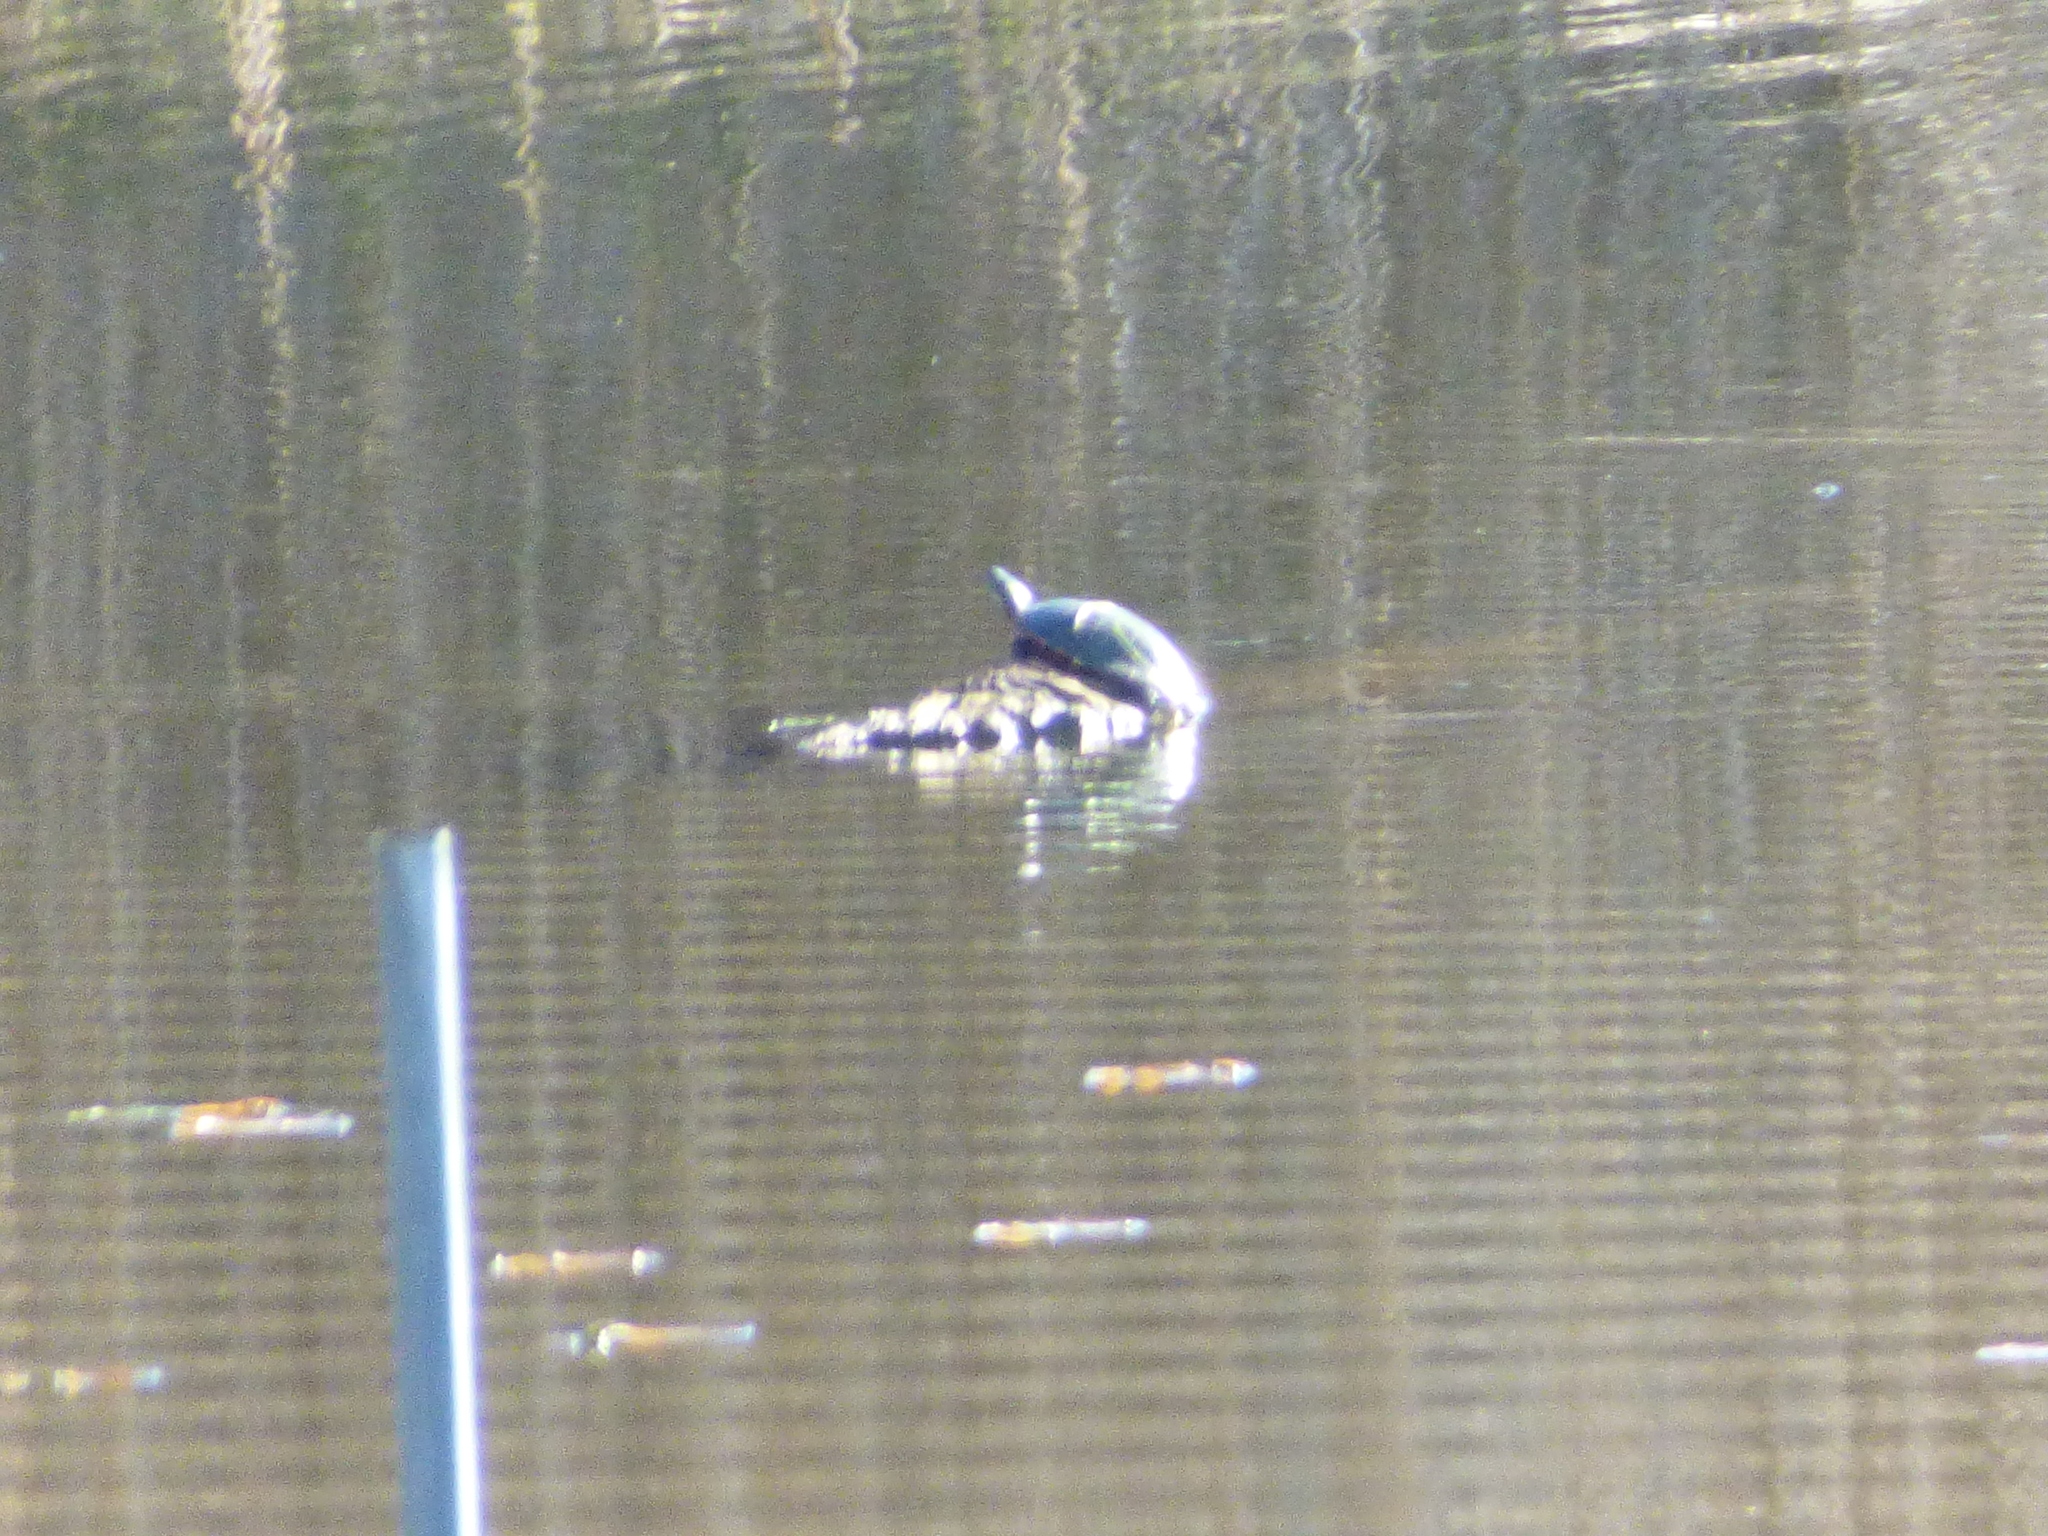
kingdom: Animalia
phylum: Chordata
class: Testudines
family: Emydidae
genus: Chrysemys
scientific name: Chrysemys picta
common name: Painted turtle
